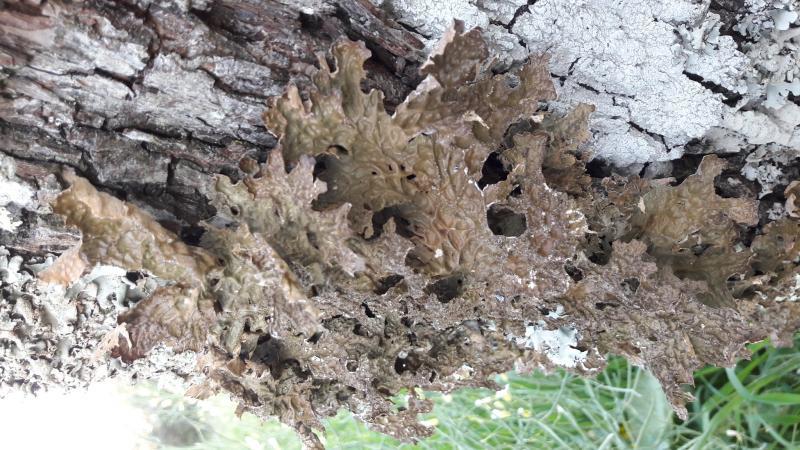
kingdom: Fungi
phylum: Ascomycota
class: Lecanoromycetes
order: Peltigerales
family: Lobariaceae
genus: Lobaria
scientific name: Lobaria pulmonaria
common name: Lungwort
